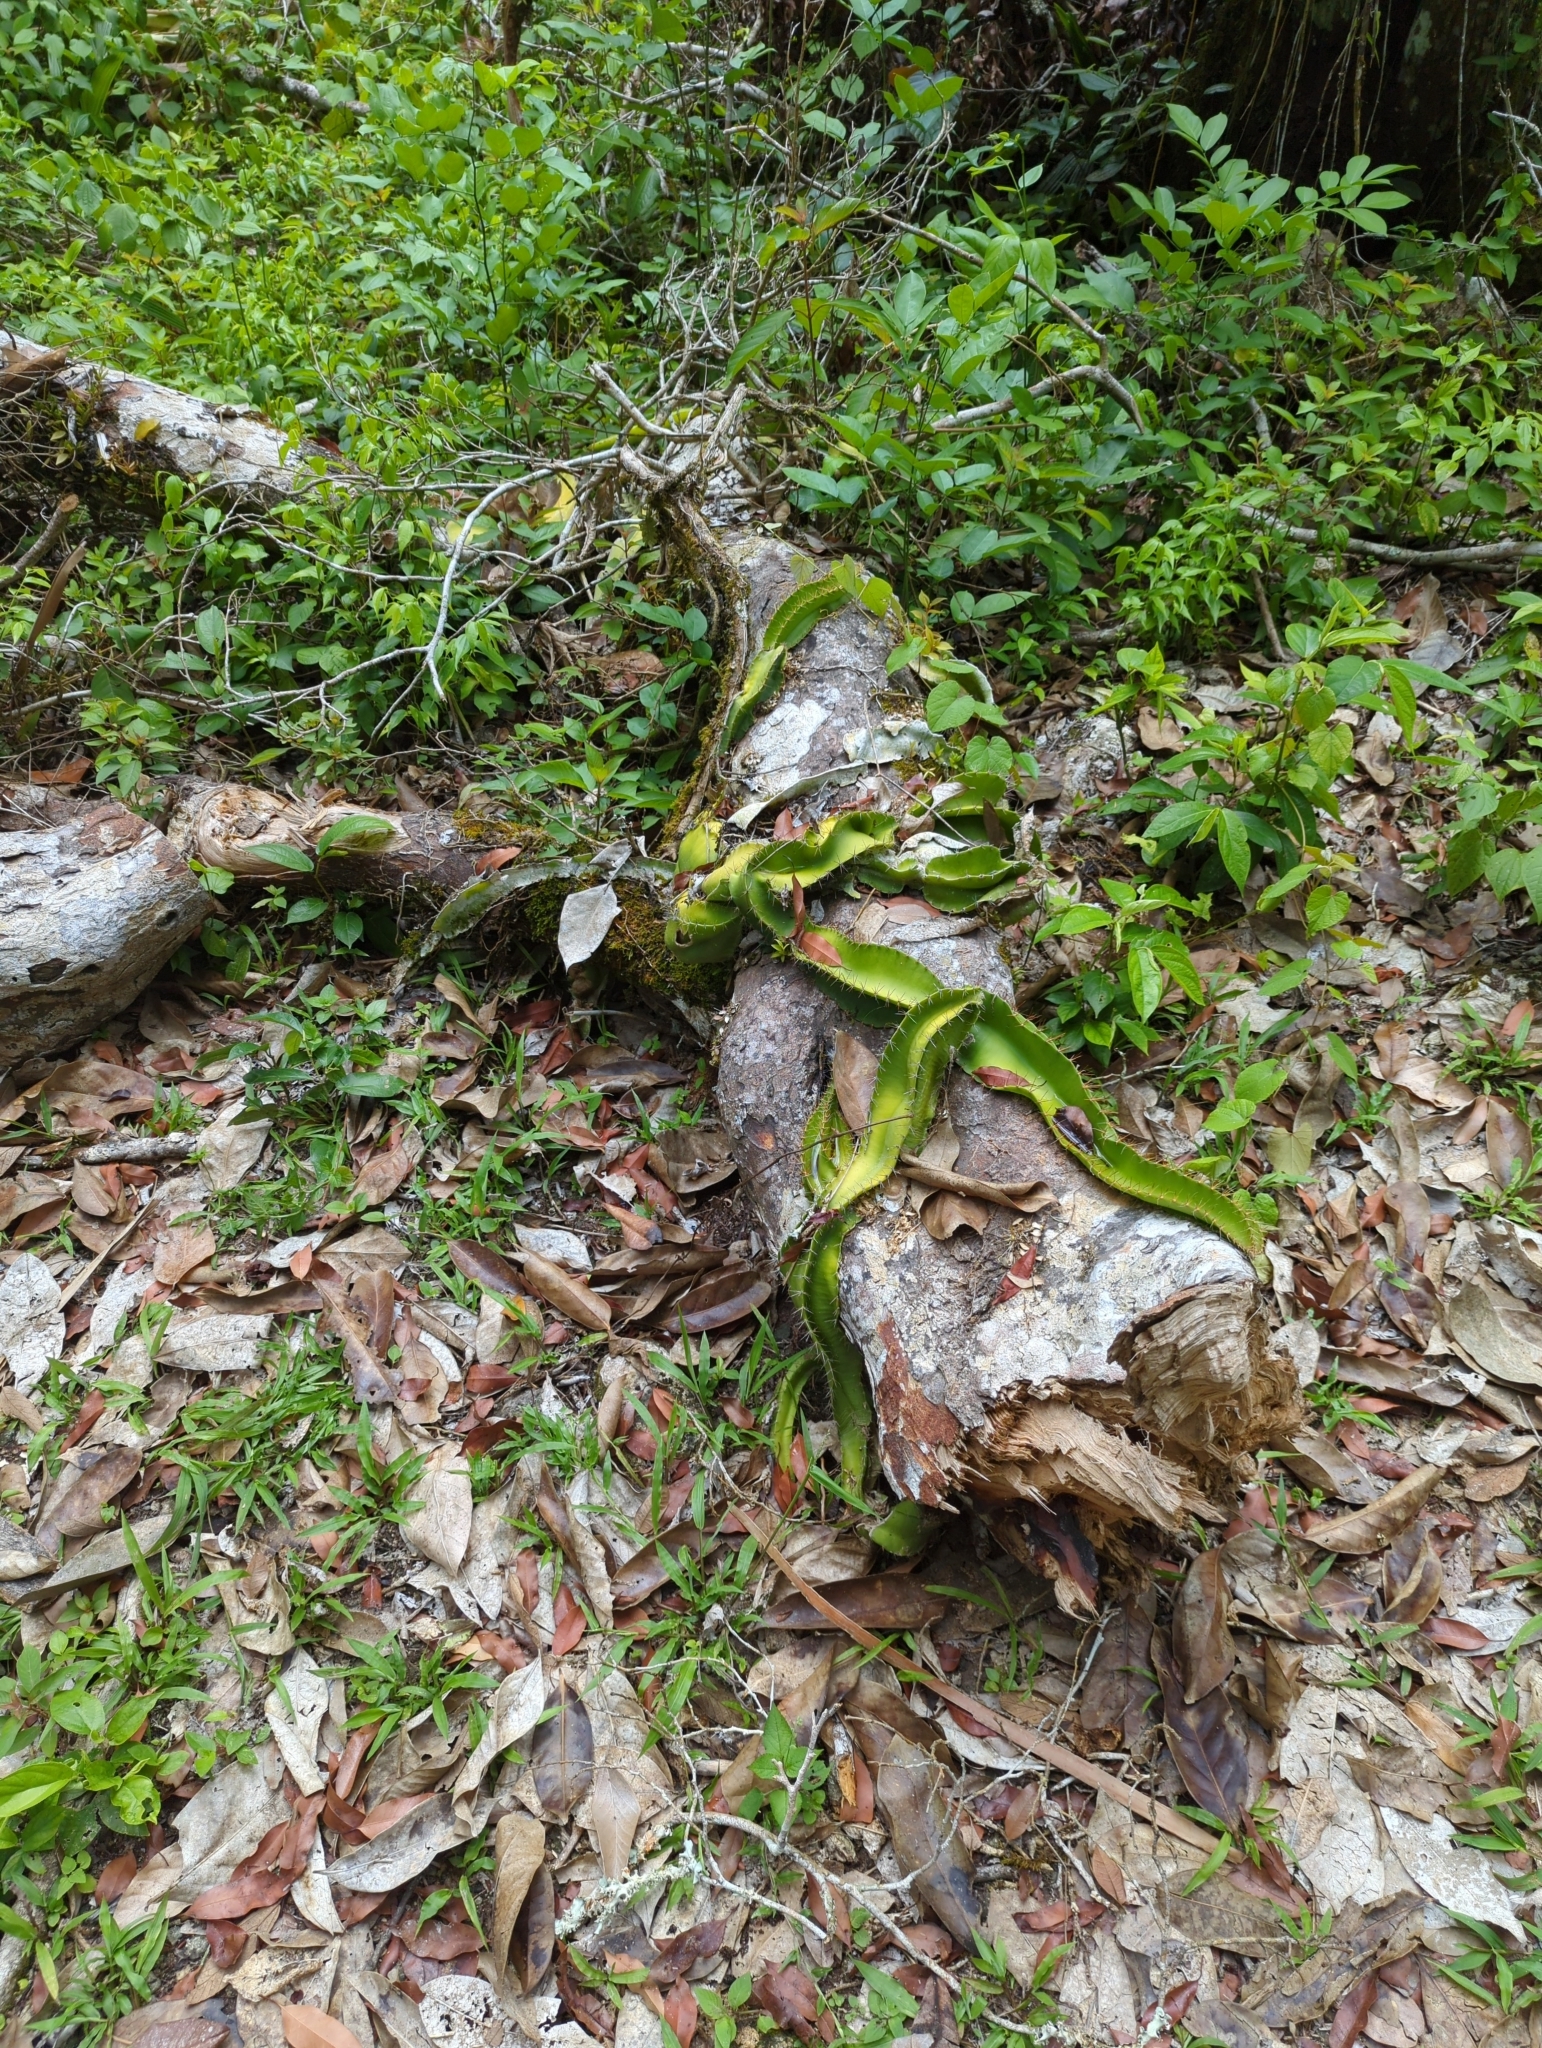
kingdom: Plantae
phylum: Tracheophyta
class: Magnoliopsida
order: Caryophyllales
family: Cactaceae
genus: Deamia
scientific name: Deamia testudo
